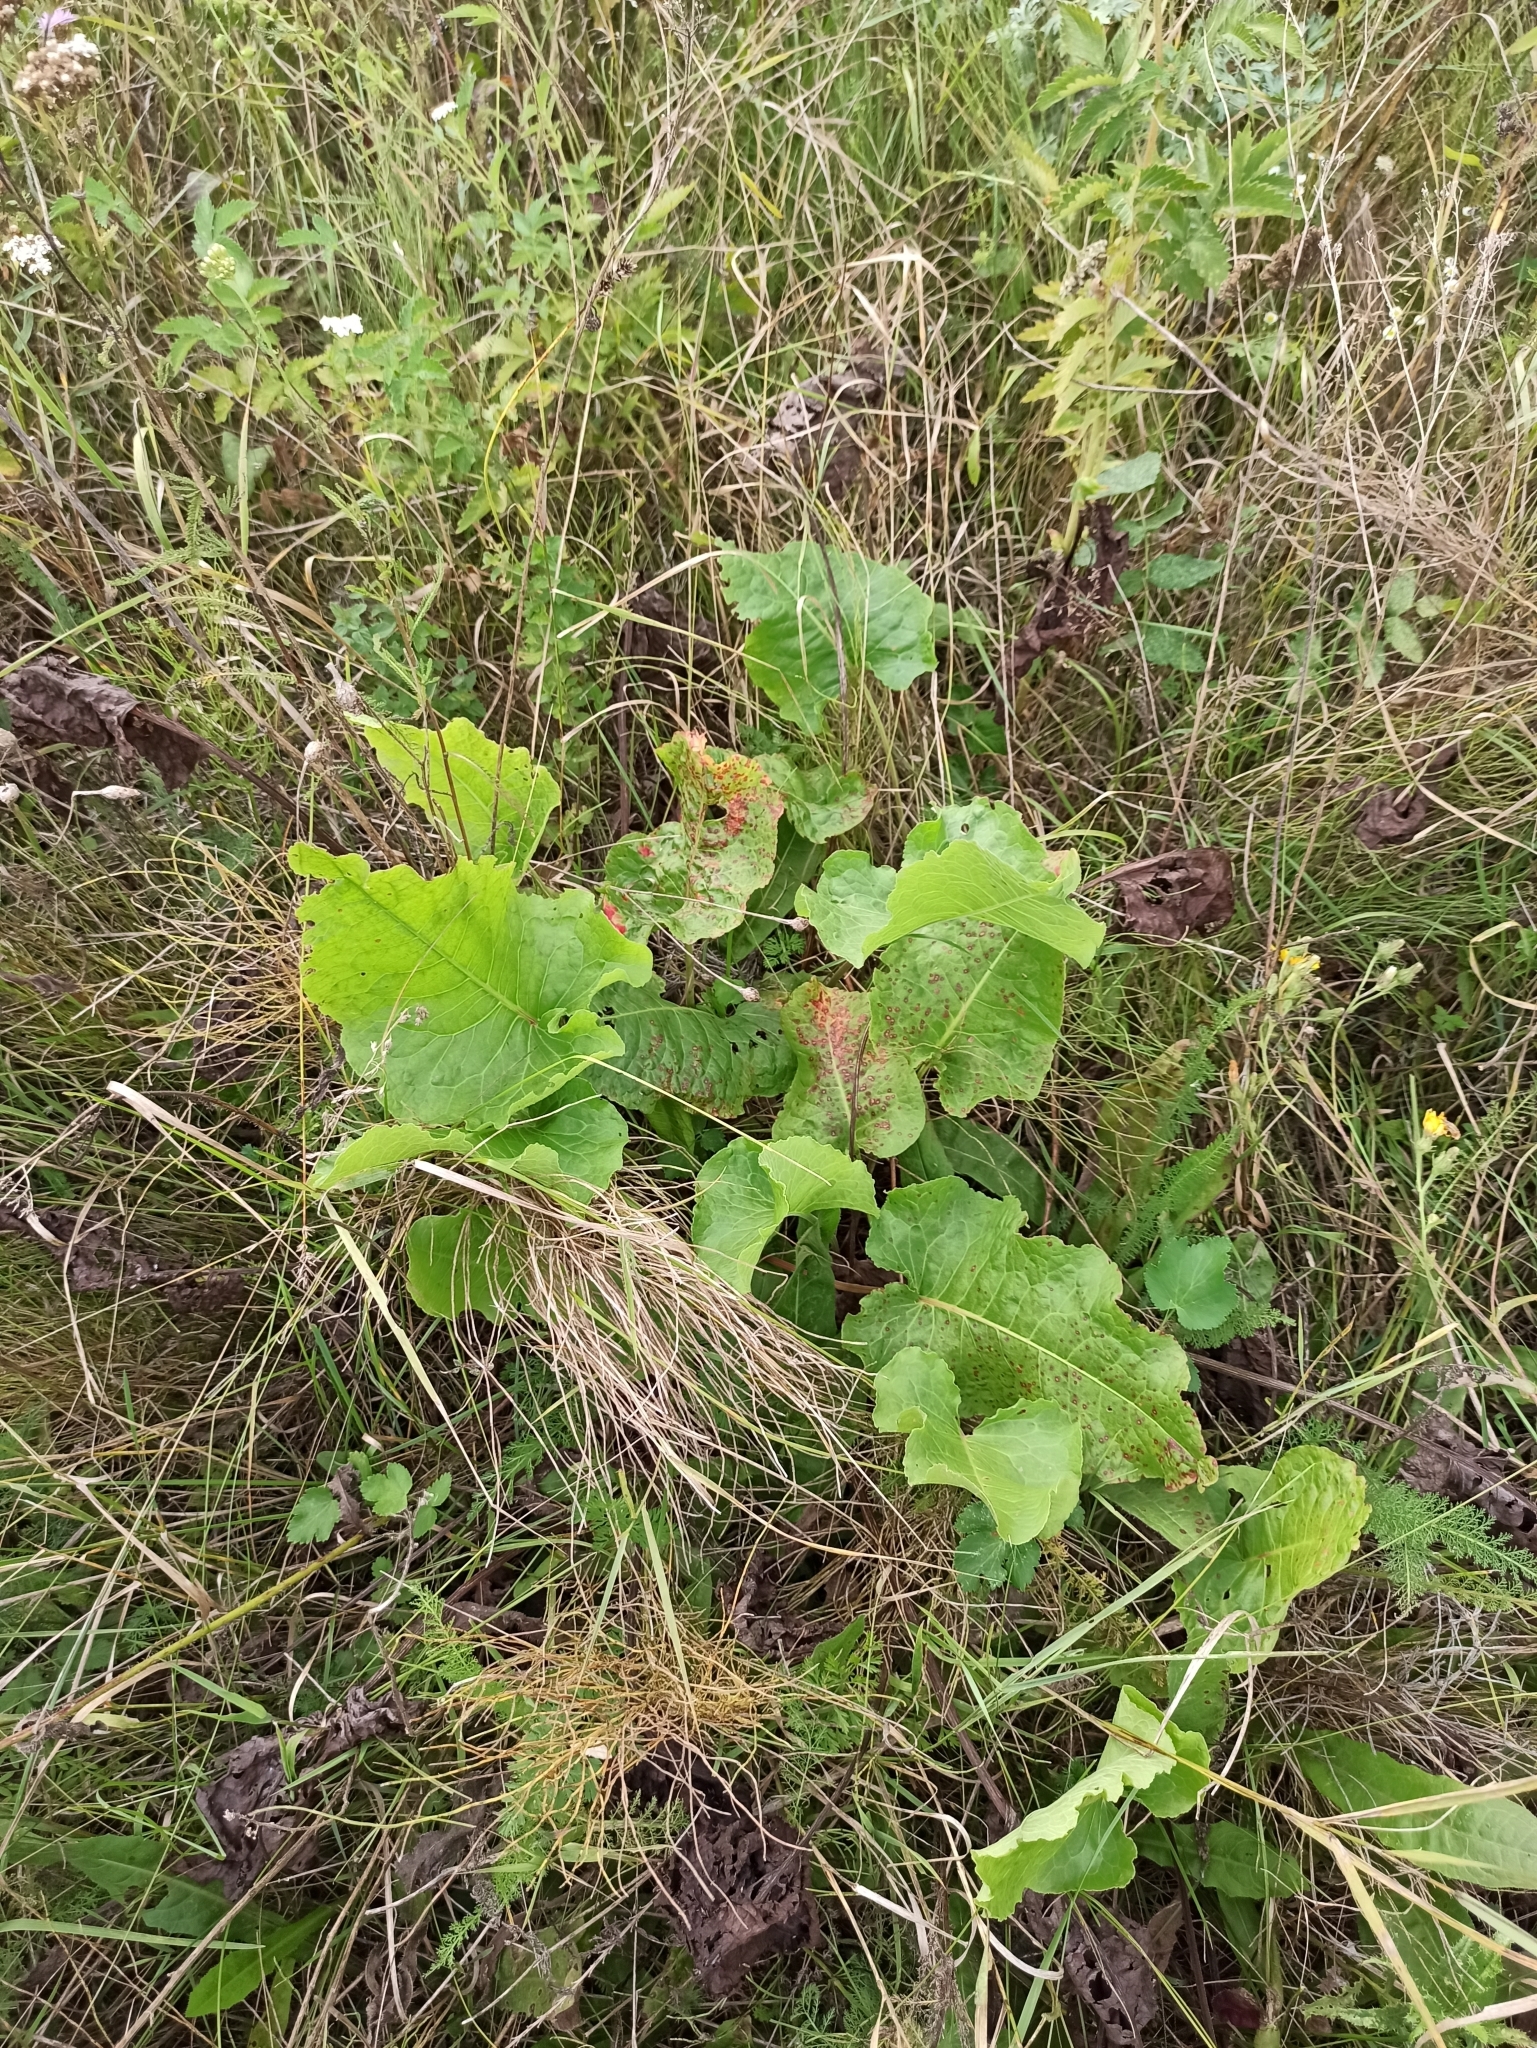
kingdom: Plantae
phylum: Tracheophyta
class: Magnoliopsida
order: Caryophyllales
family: Polygonaceae
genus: Rumex
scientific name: Rumex confertus
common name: Russian dock
